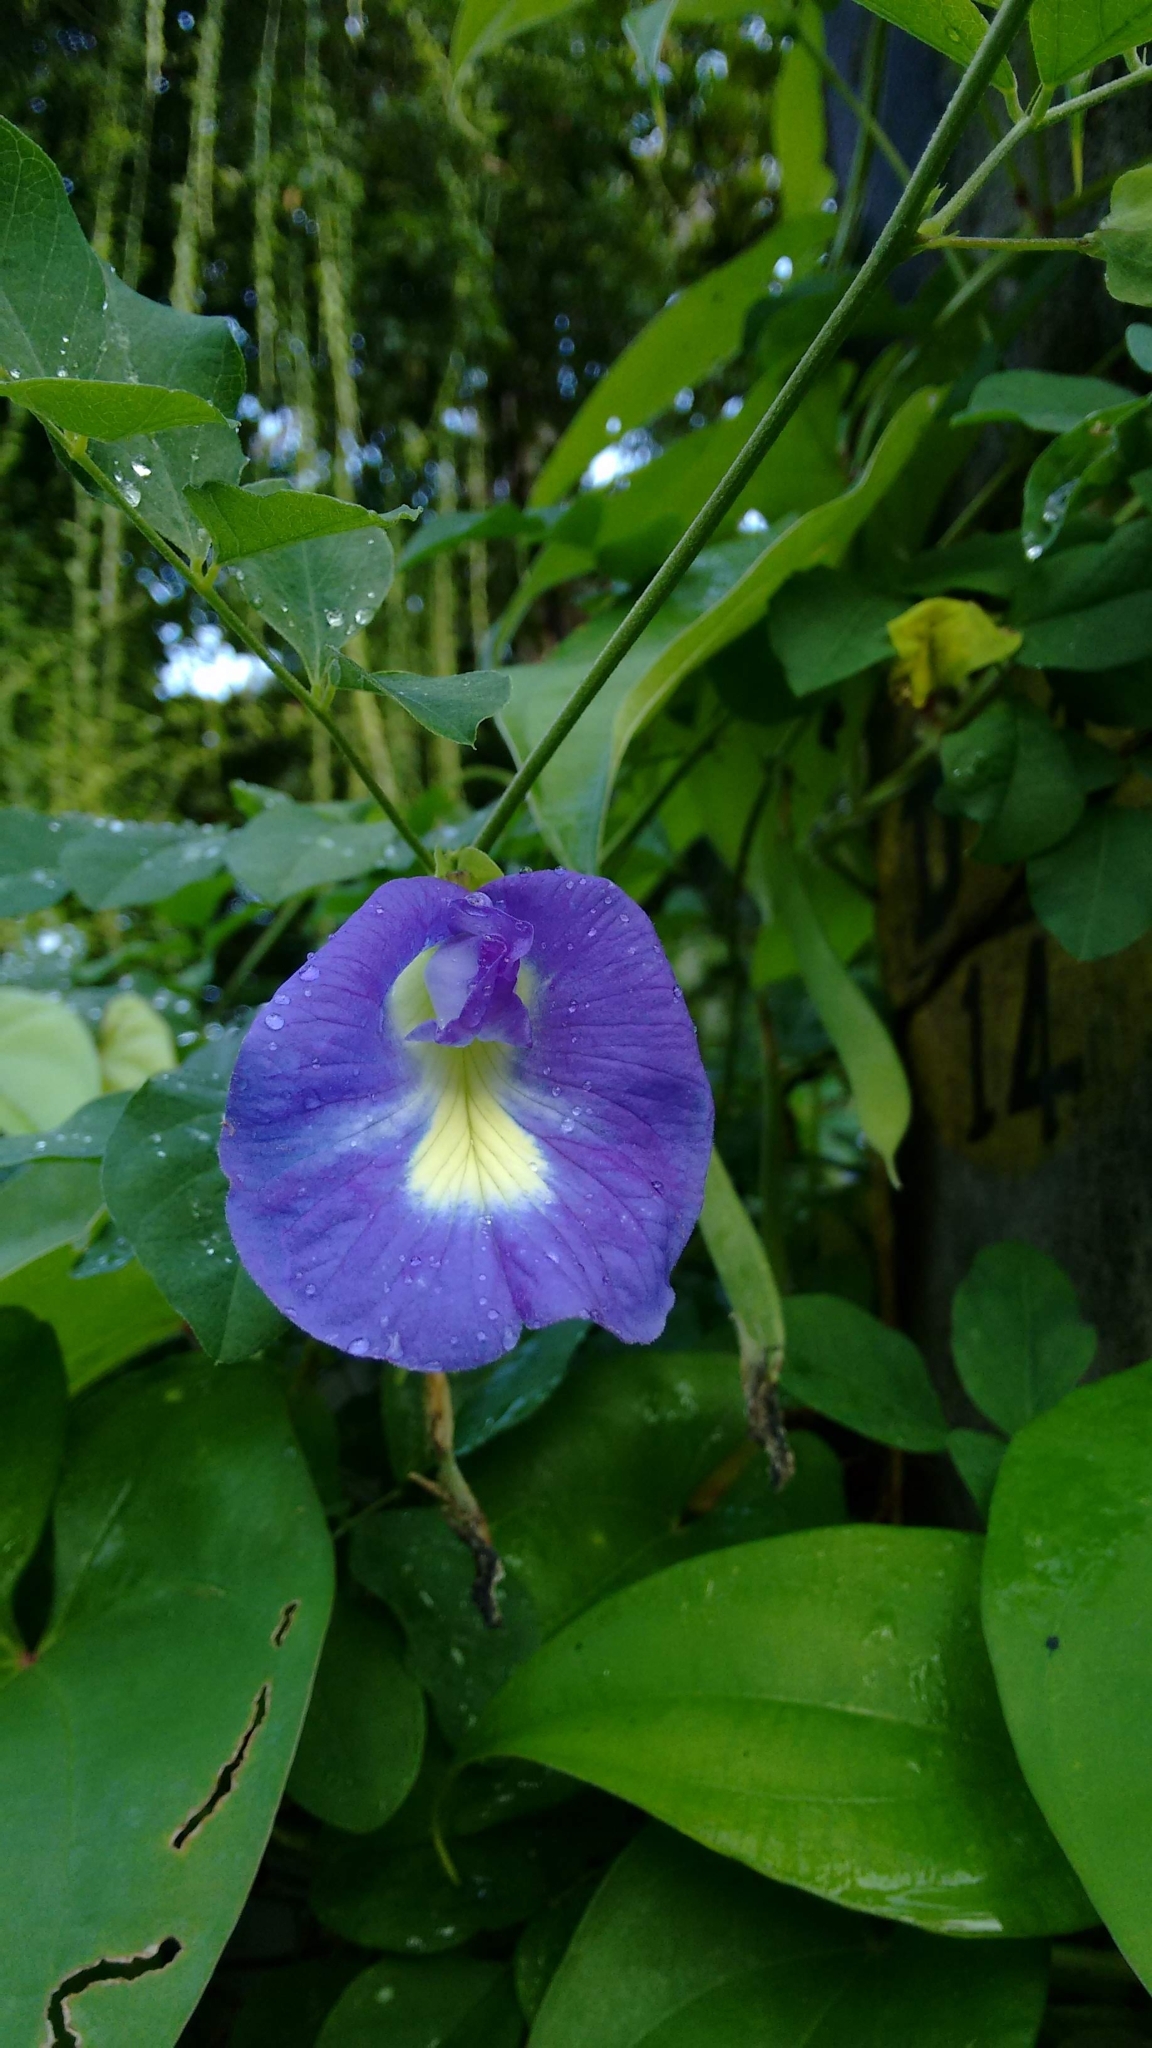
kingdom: Plantae
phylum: Tracheophyta
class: Magnoliopsida
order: Fabales
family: Fabaceae
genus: Clitoria
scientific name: Clitoria ternatea
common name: Asian pigeonwings
